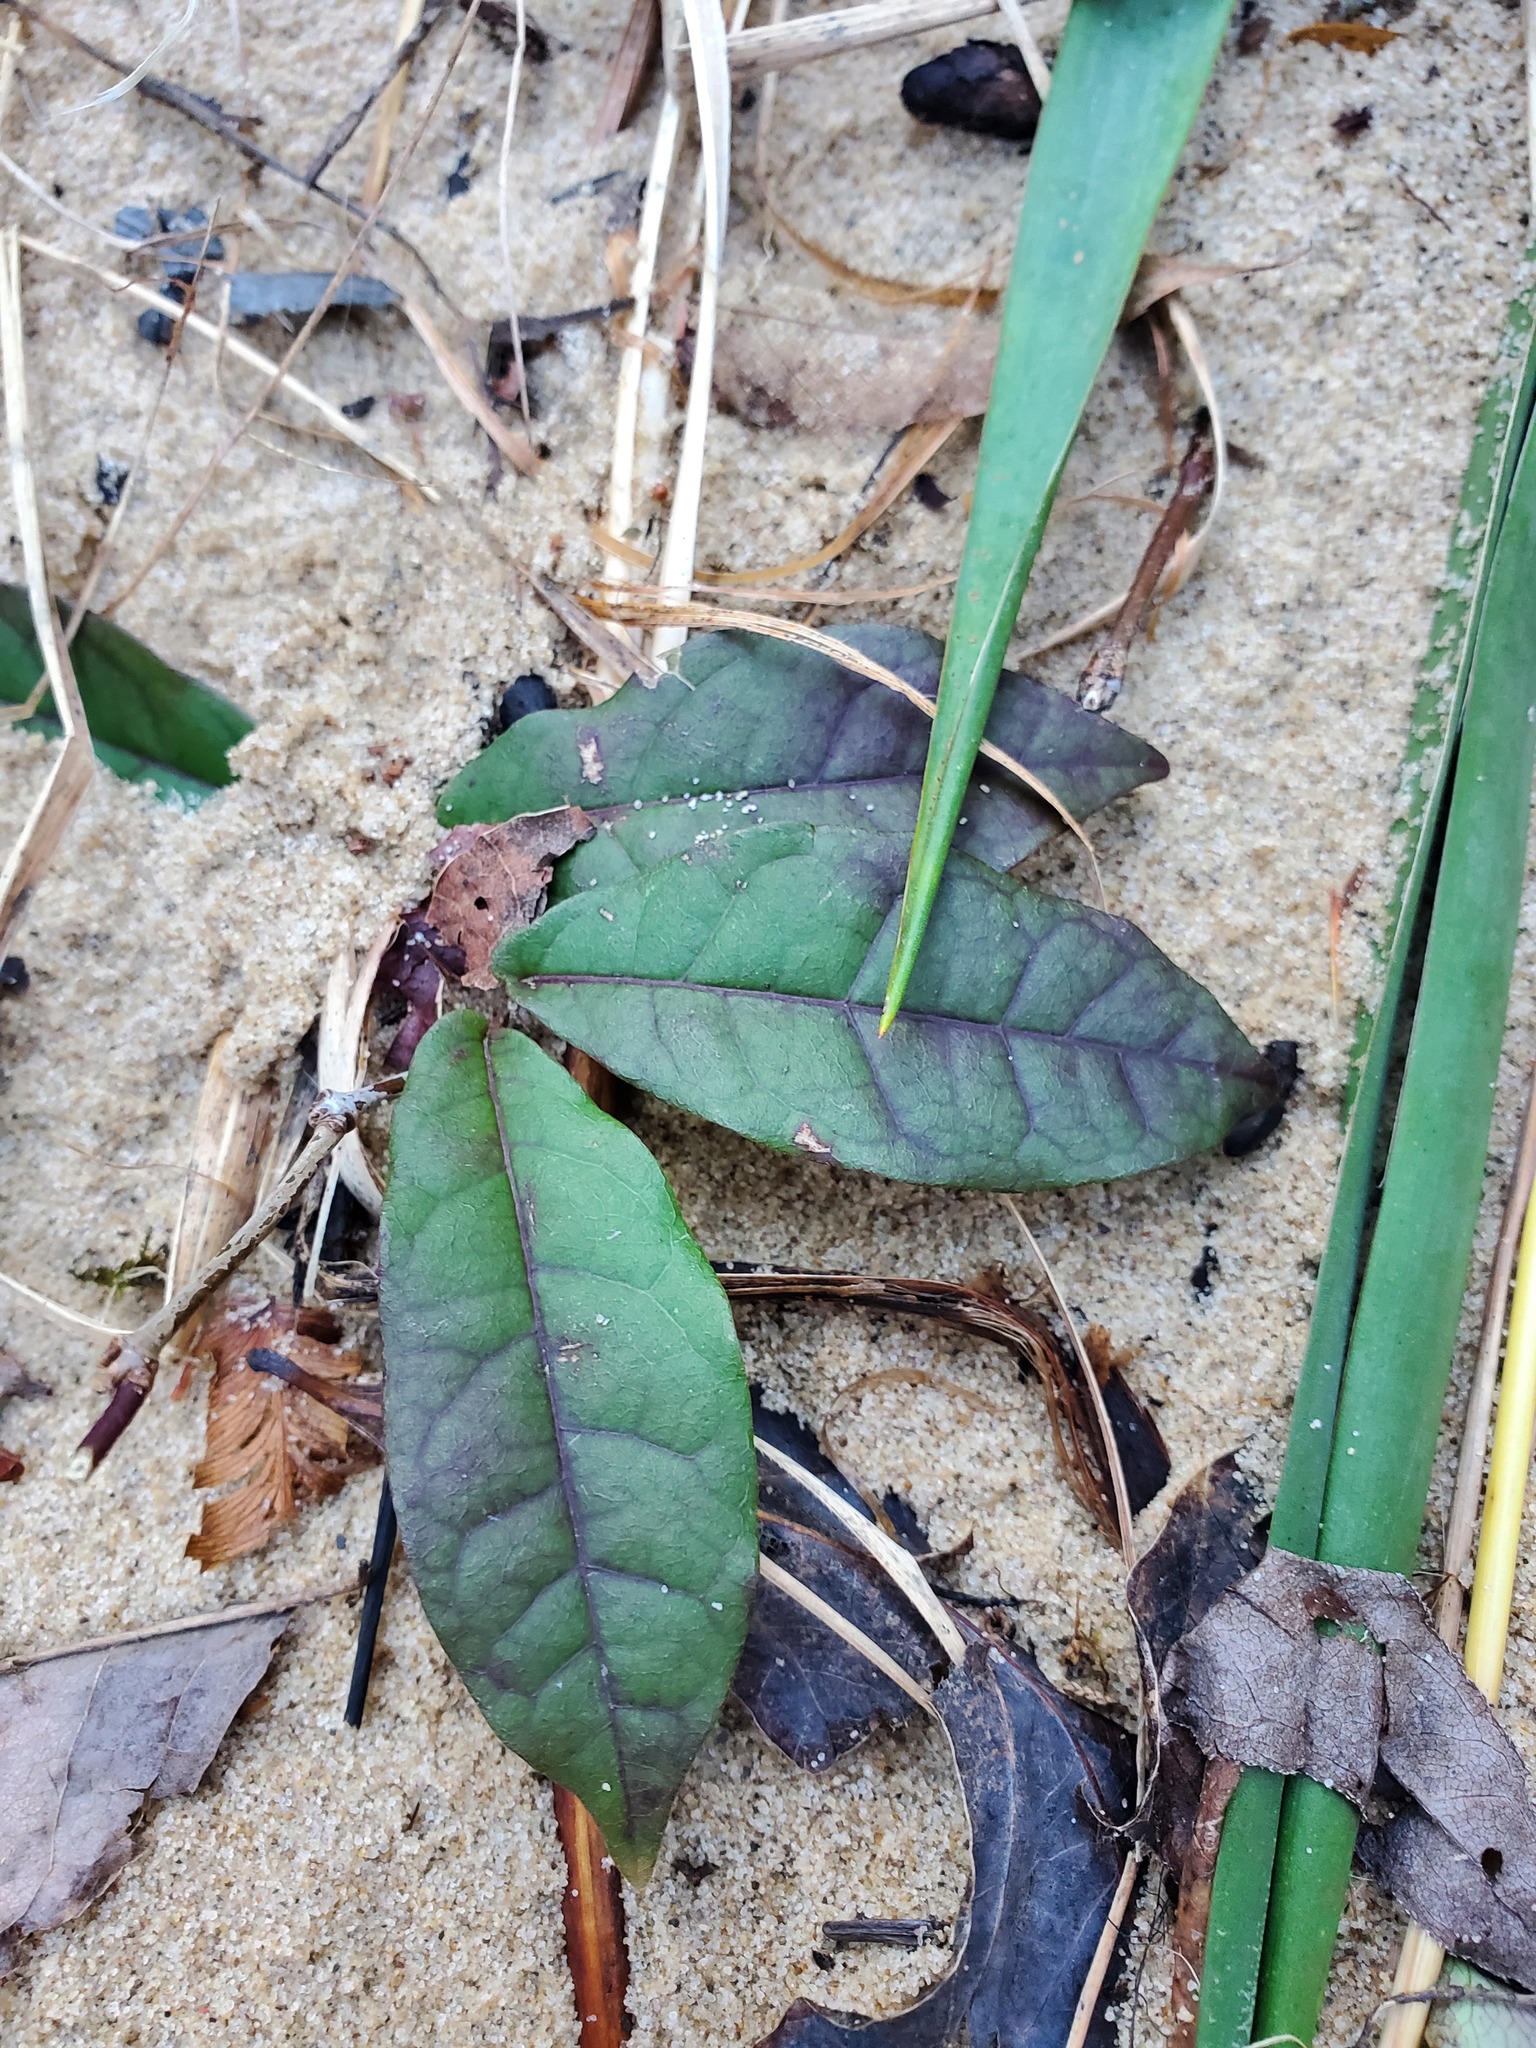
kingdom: Plantae
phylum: Tracheophyta
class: Magnoliopsida
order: Lamiales
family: Bignoniaceae
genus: Bignonia
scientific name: Bignonia capreolata
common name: Crossvine
